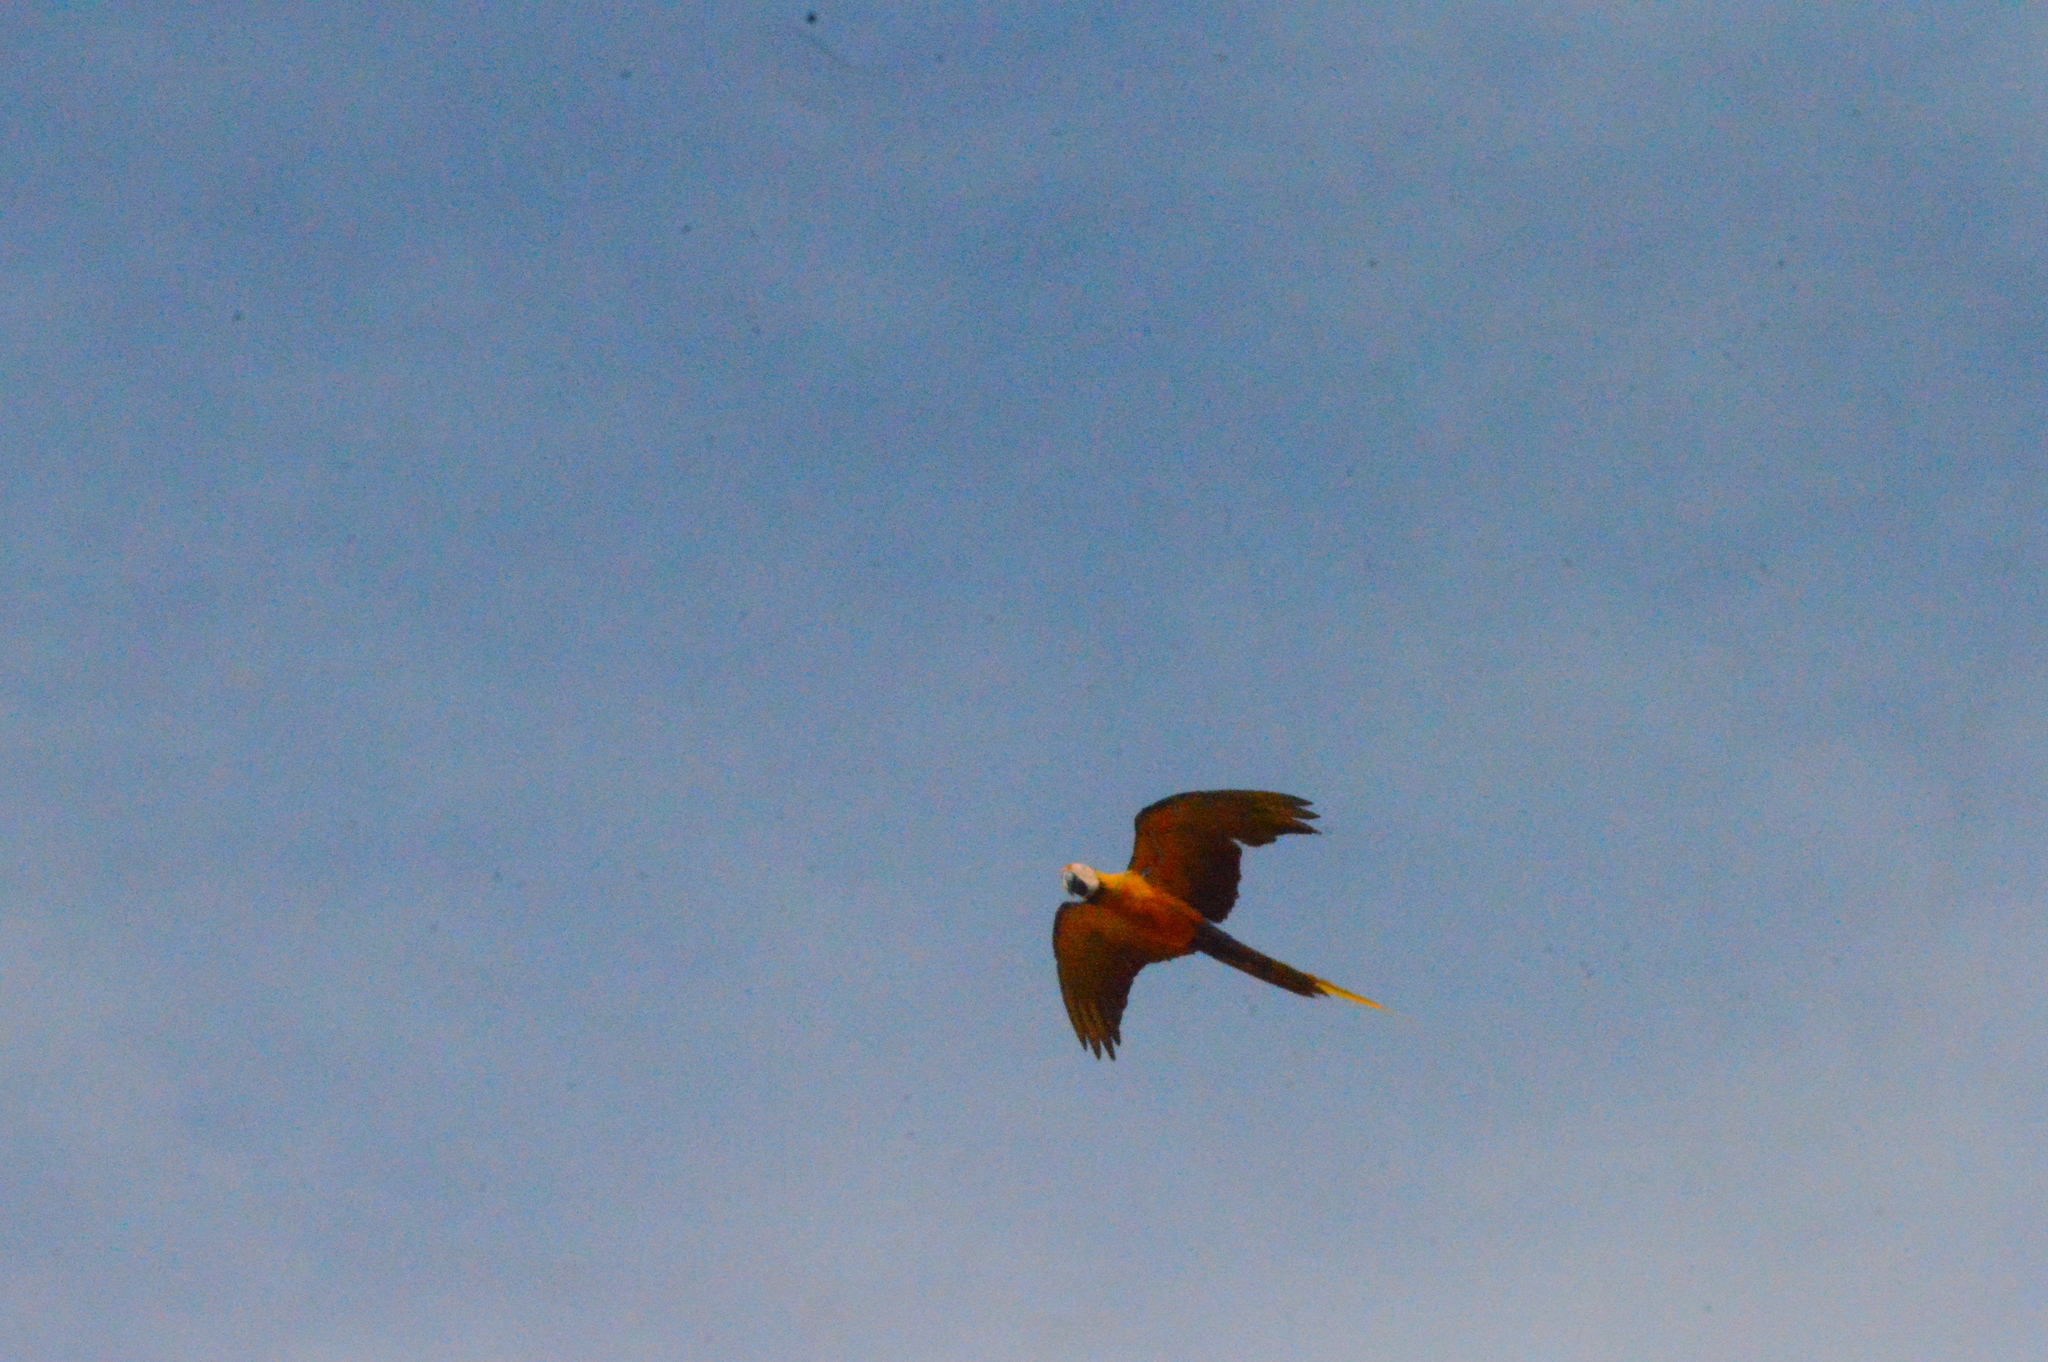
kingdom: Animalia
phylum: Chordata
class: Aves
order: Psittaciformes
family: Psittacidae
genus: Ara
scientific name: Ara ararauna
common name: Blue-and-yellow macaw
